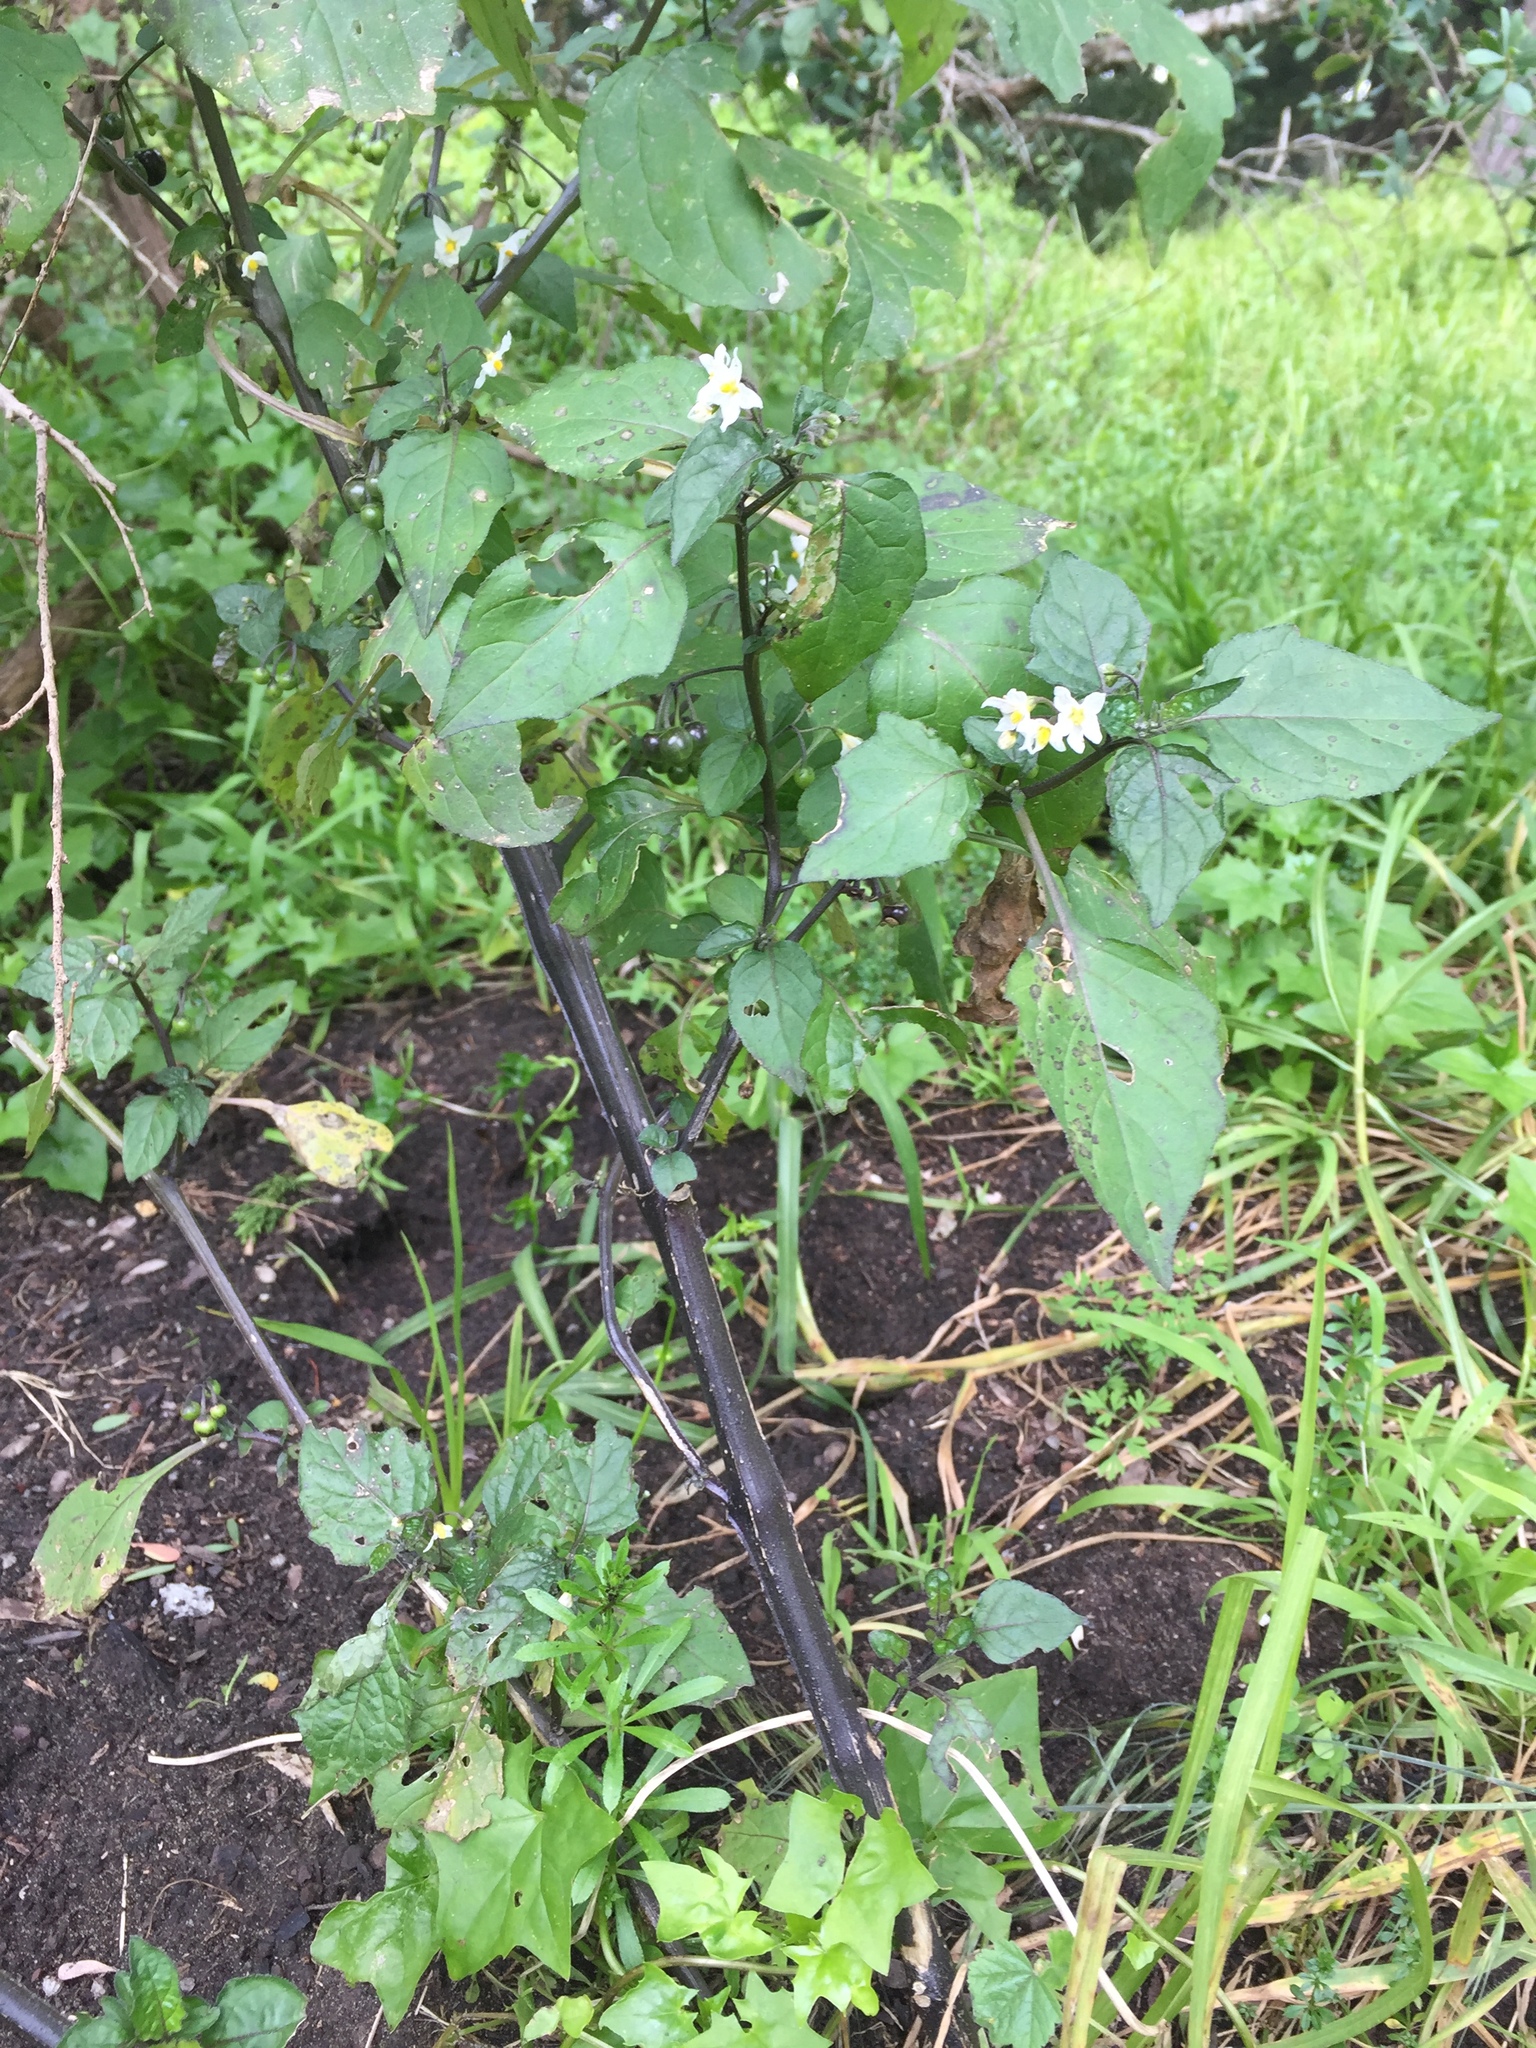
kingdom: Plantae
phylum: Tracheophyta
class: Magnoliopsida
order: Solanales
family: Solanaceae
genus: Solanum
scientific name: Solanum nigrum
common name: Black nightshade
